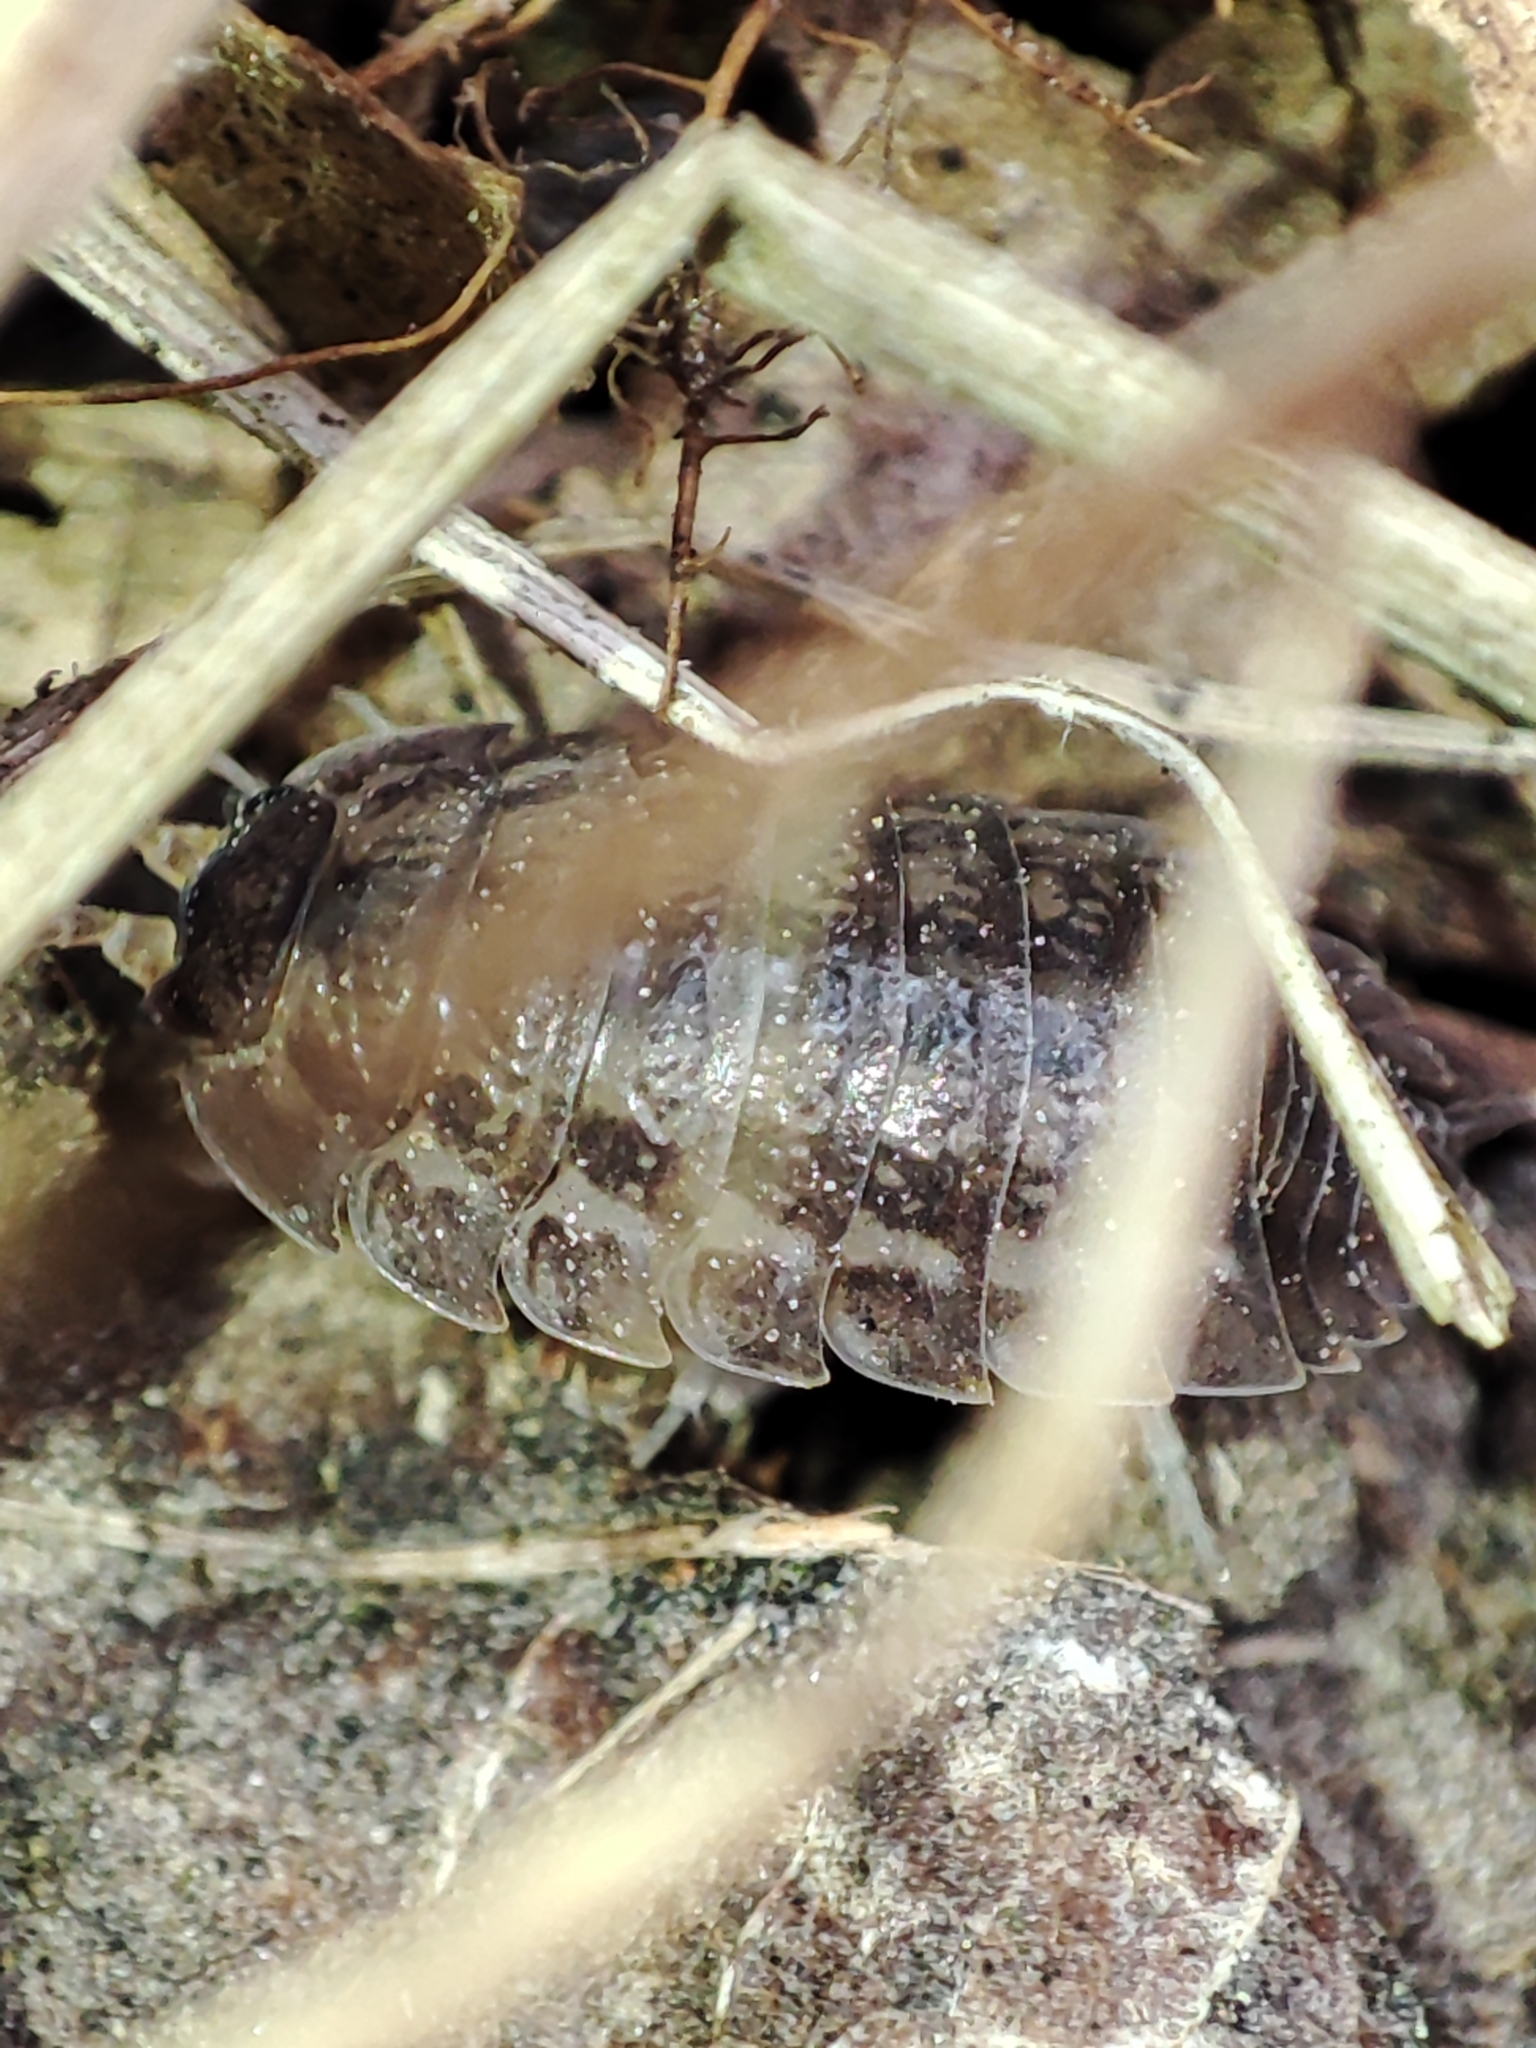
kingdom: Animalia
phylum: Arthropoda
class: Malacostraca
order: Isopoda
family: Trachelipodidae
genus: Trachelipus
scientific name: Trachelipus rathkii
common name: Isopod
